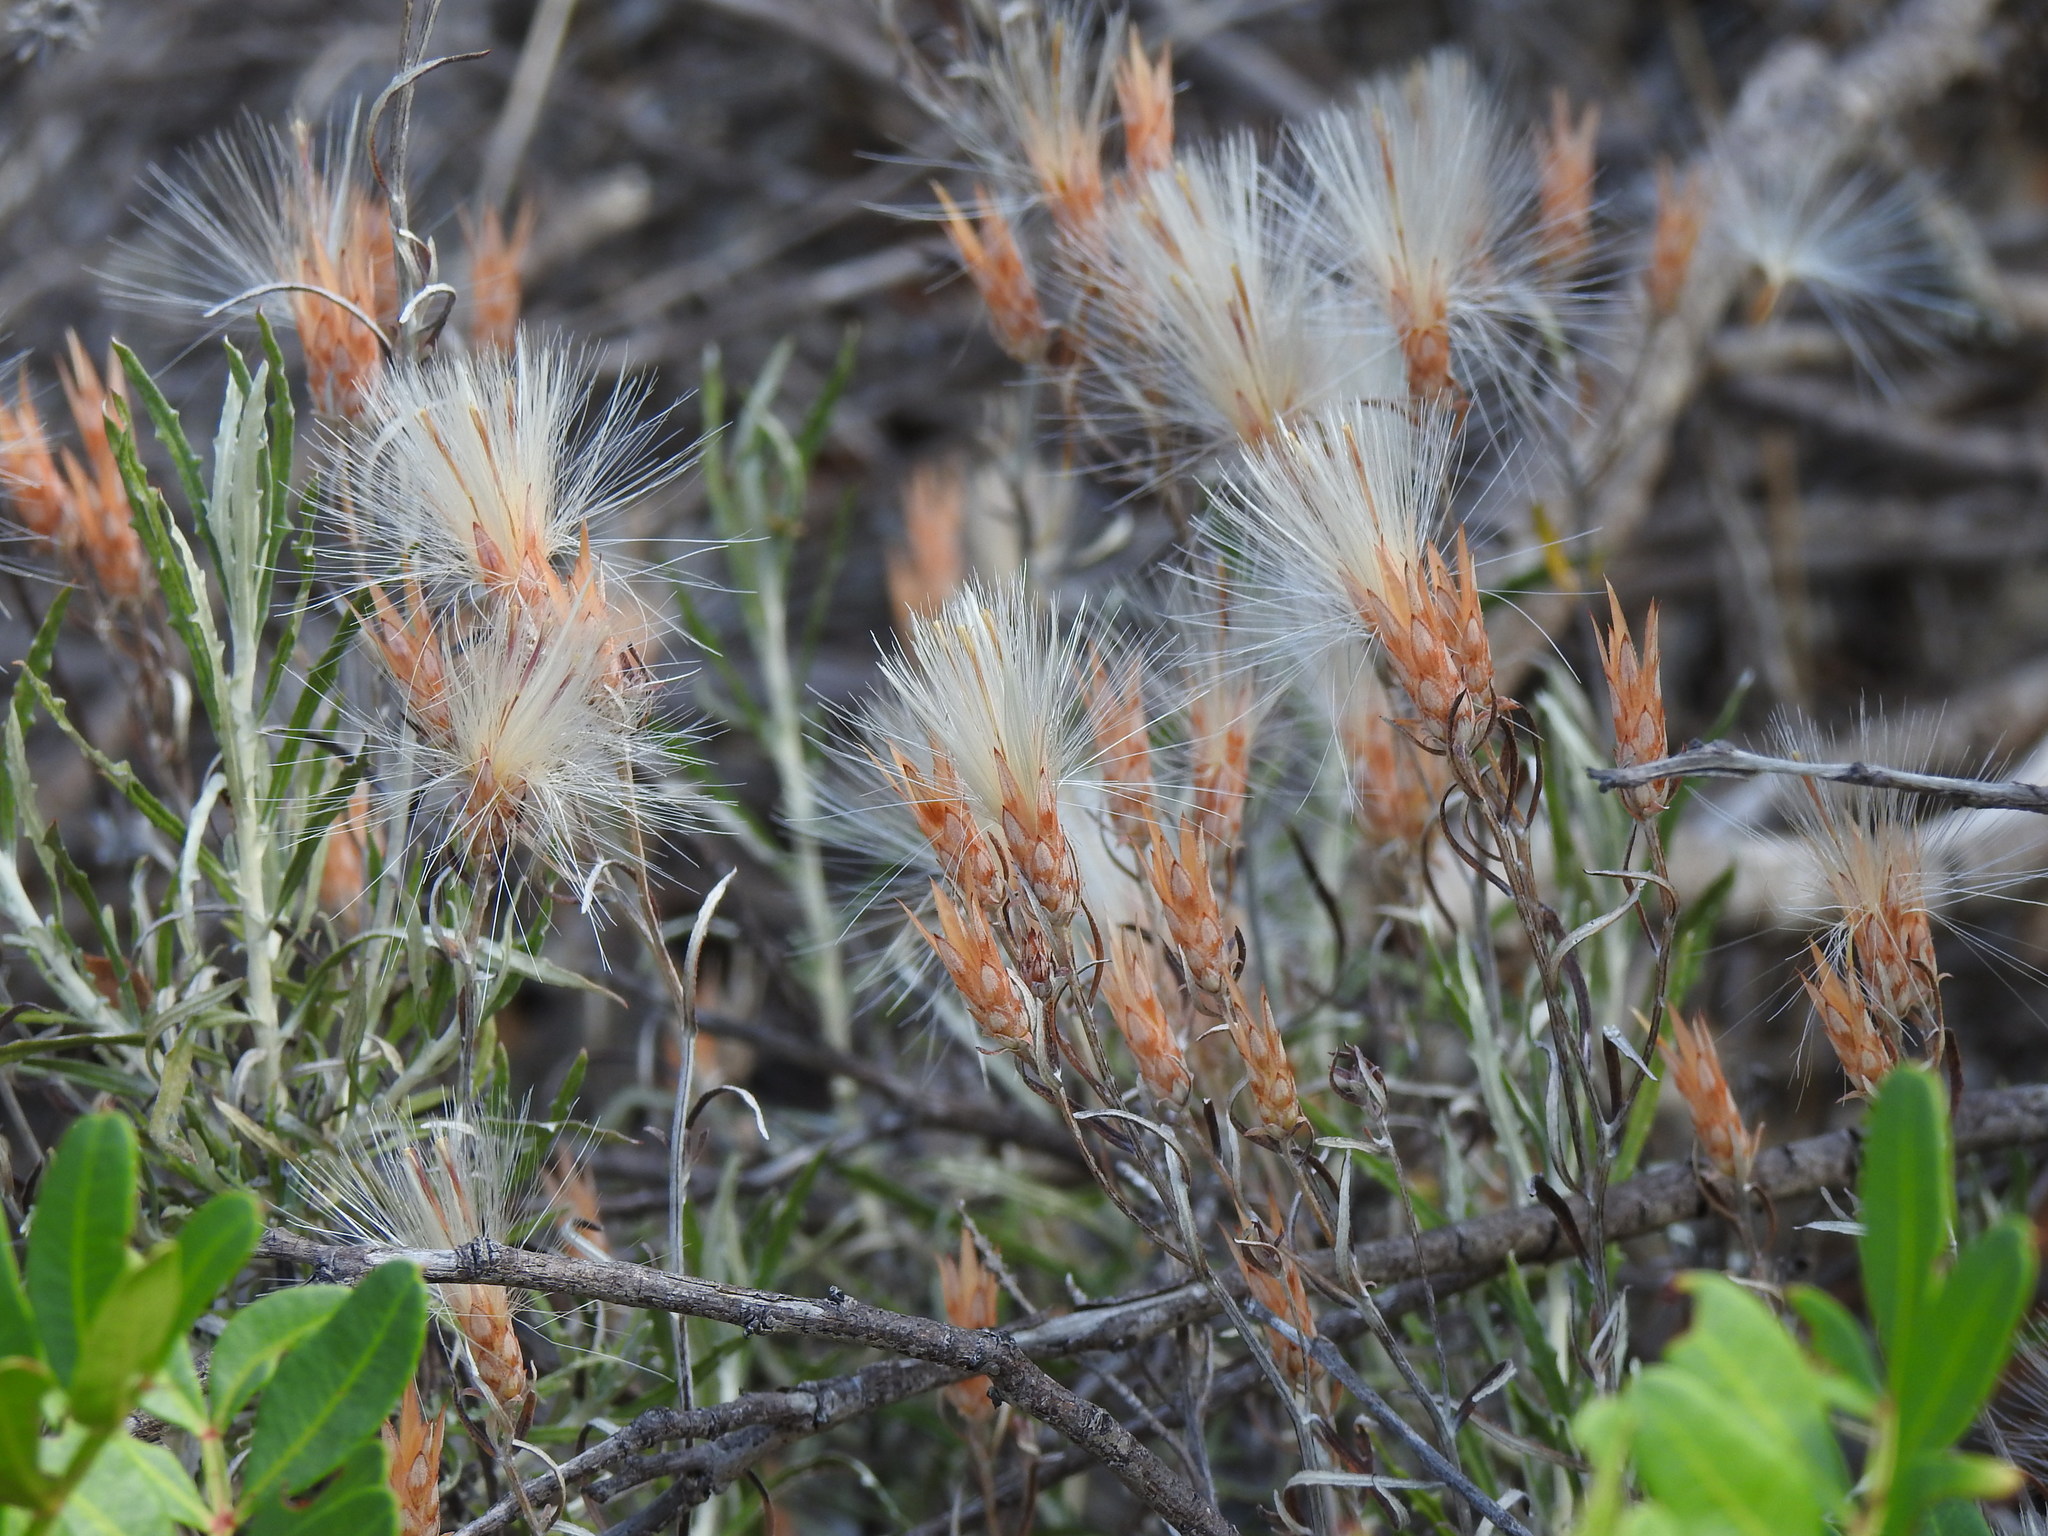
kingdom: Plantae
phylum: Tracheophyta
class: Magnoliopsida
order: Asterales
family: Asteraceae
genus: Staehelina
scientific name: Staehelina dubia
